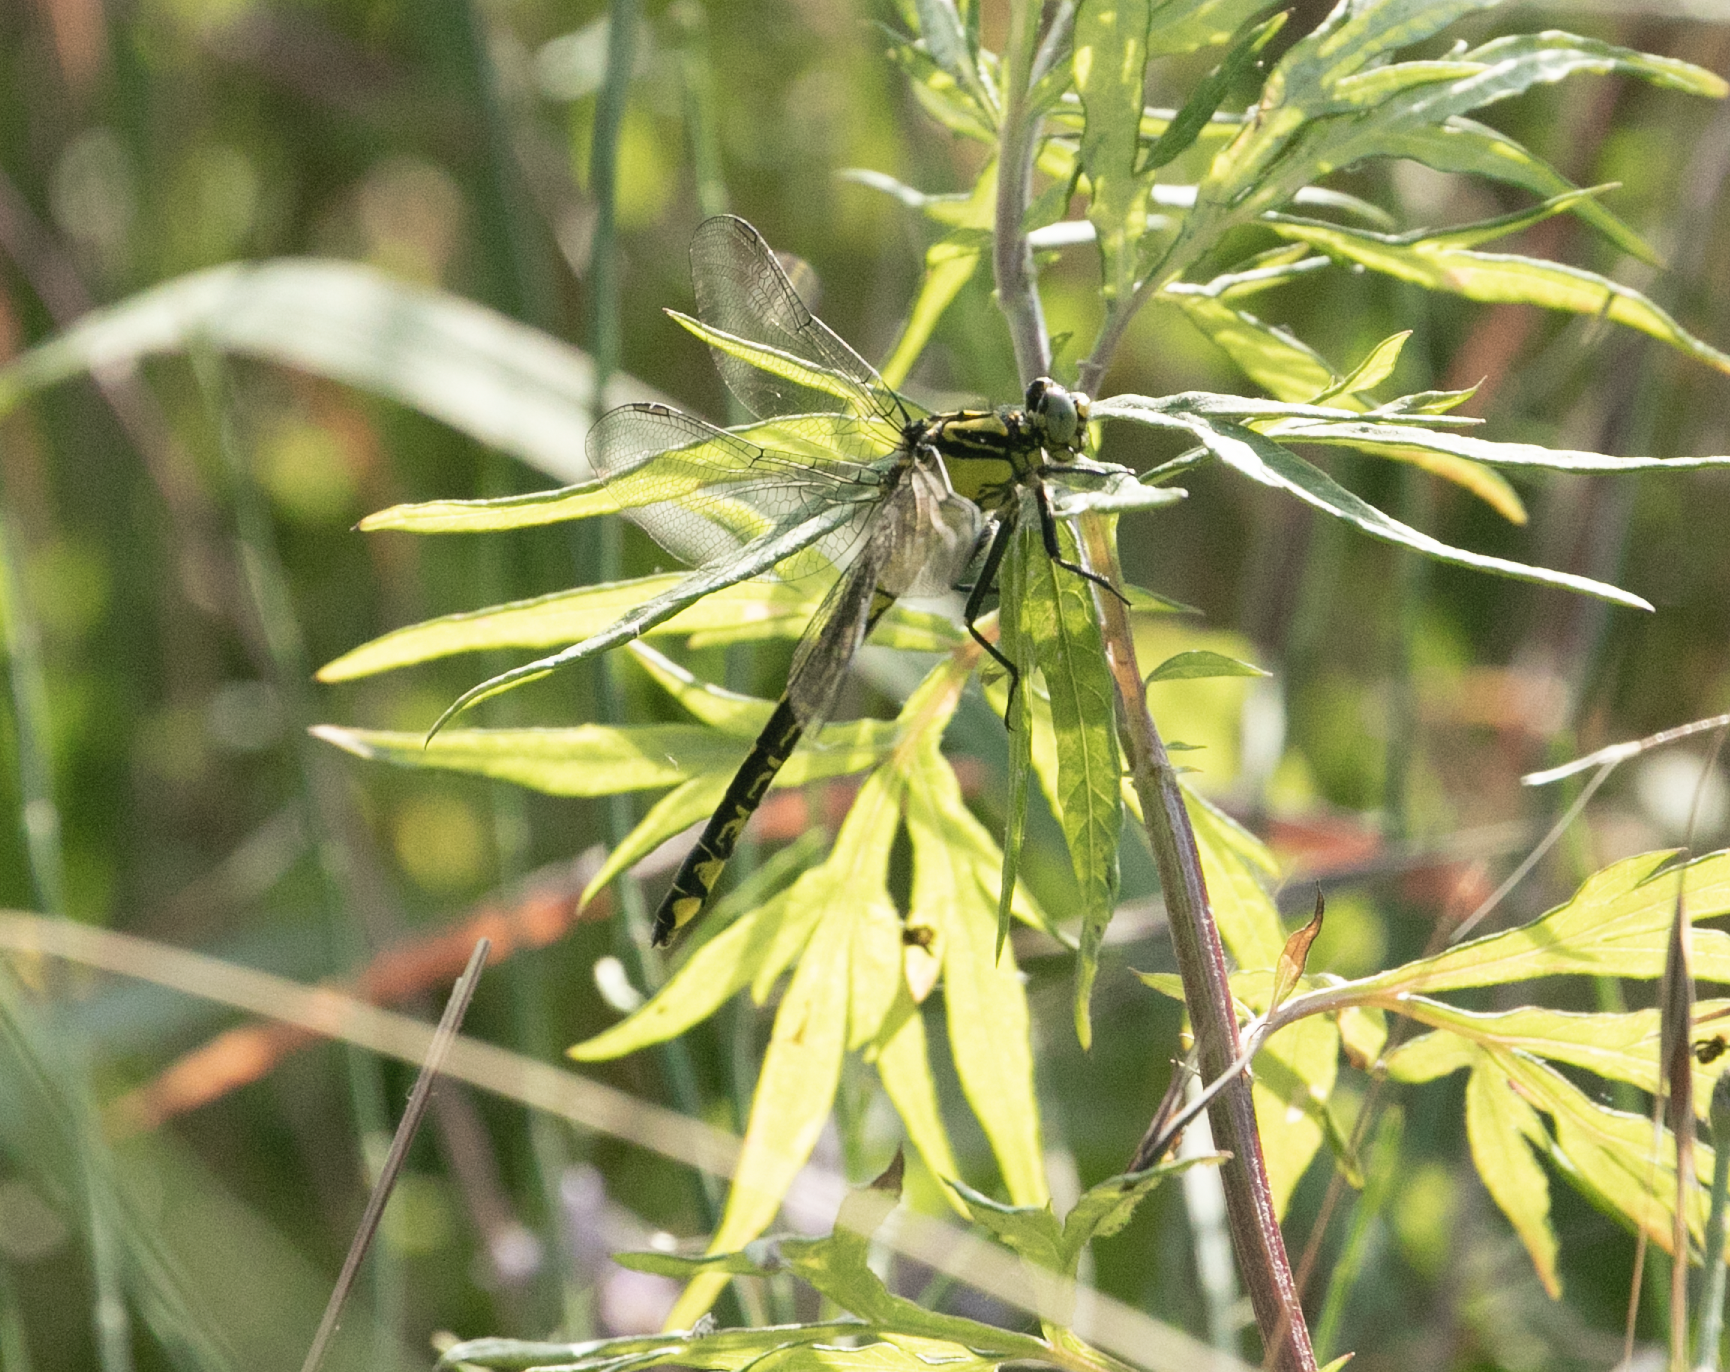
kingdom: Animalia
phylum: Arthropoda
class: Insecta
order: Odonata
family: Gomphidae
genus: Gomphus
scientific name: Gomphus vulgatissimus
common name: Club-tailed dragonfly
